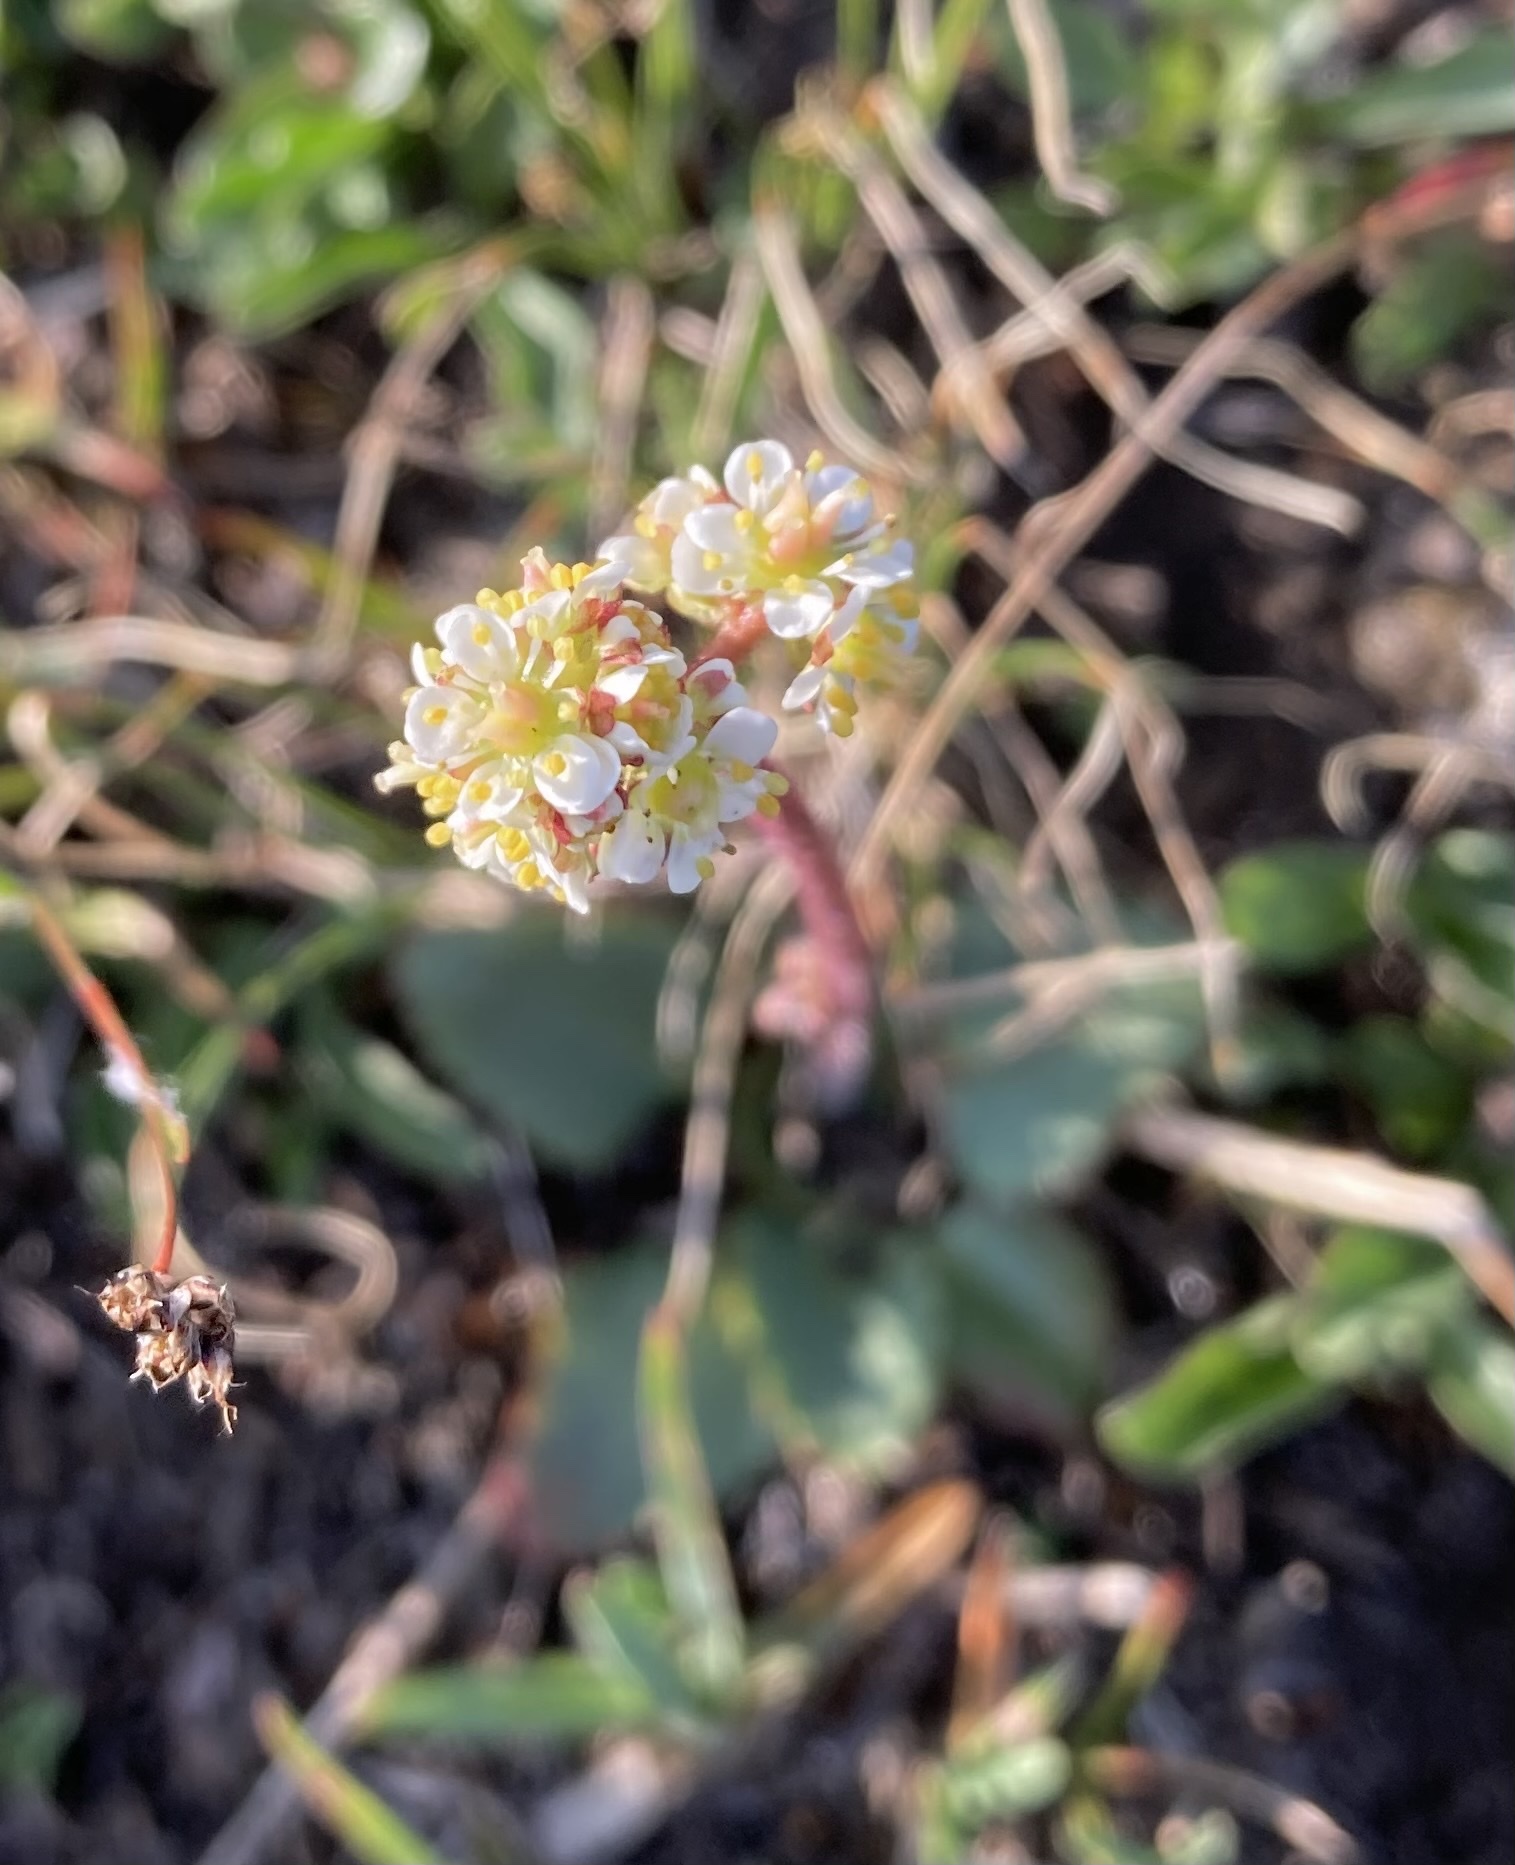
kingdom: Plantae
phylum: Tracheophyta
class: Magnoliopsida
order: Saxifragales
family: Saxifragaceae
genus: Micranthes
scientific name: Micranthes occidentalis
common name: Alberta saxifrage
